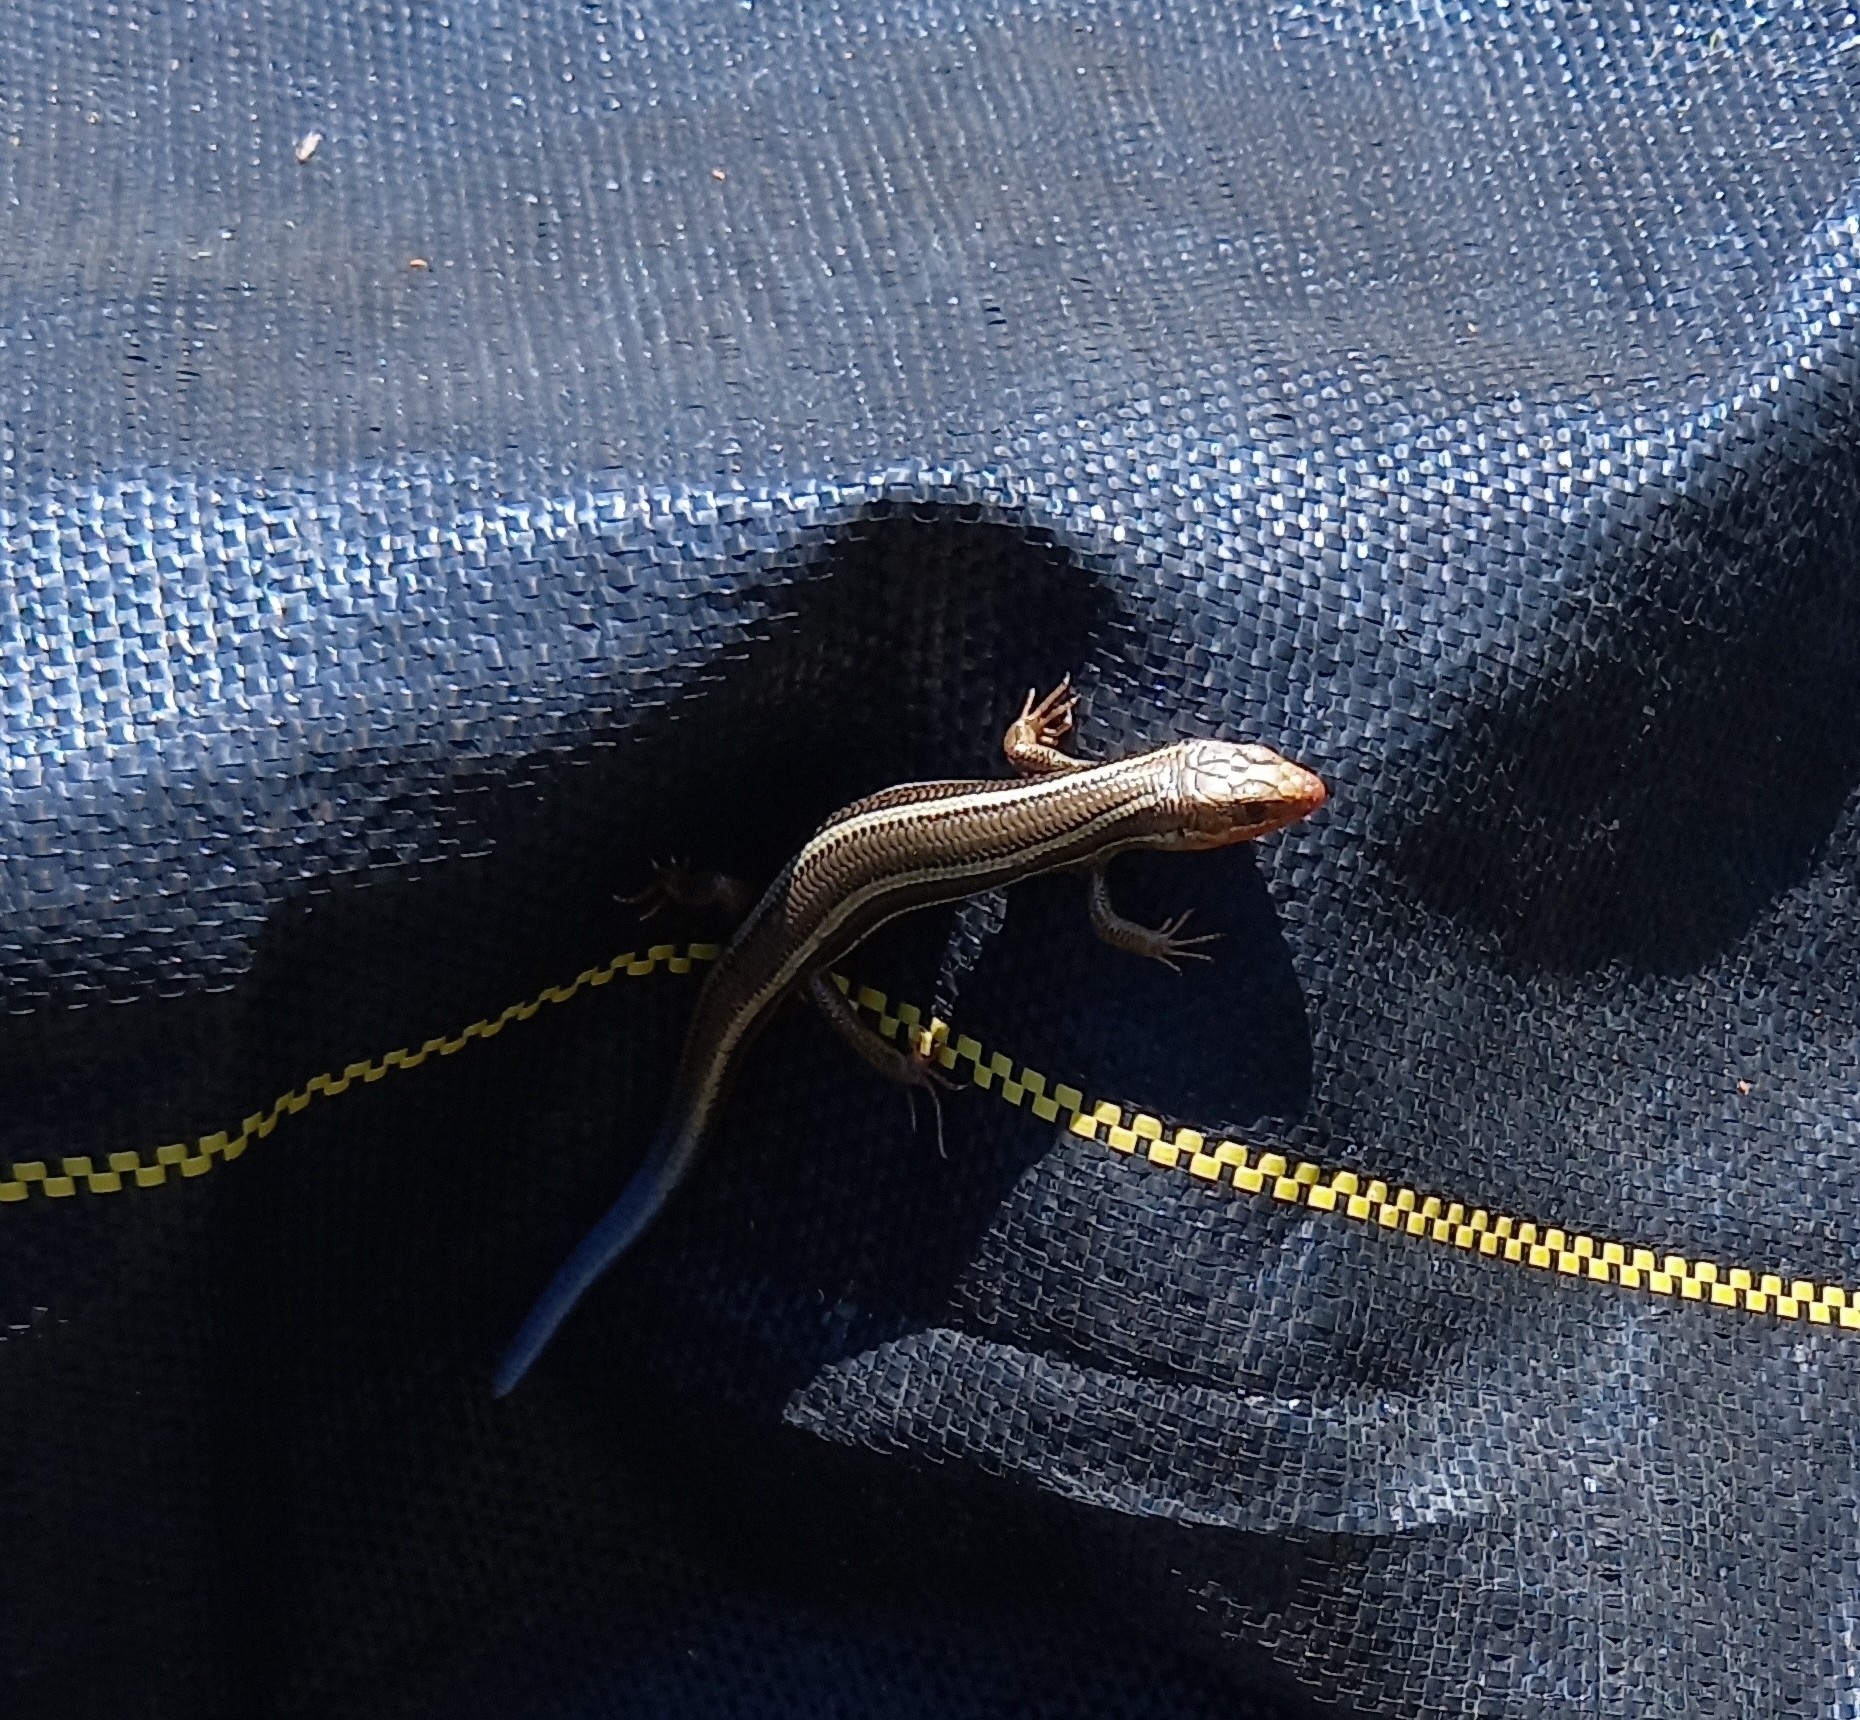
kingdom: Animalia
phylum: Chordata
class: Squamata
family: Scincidae
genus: Plestiodon
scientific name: Plestiodon skiltonianus
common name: Coronado island skink [interparietalis]
